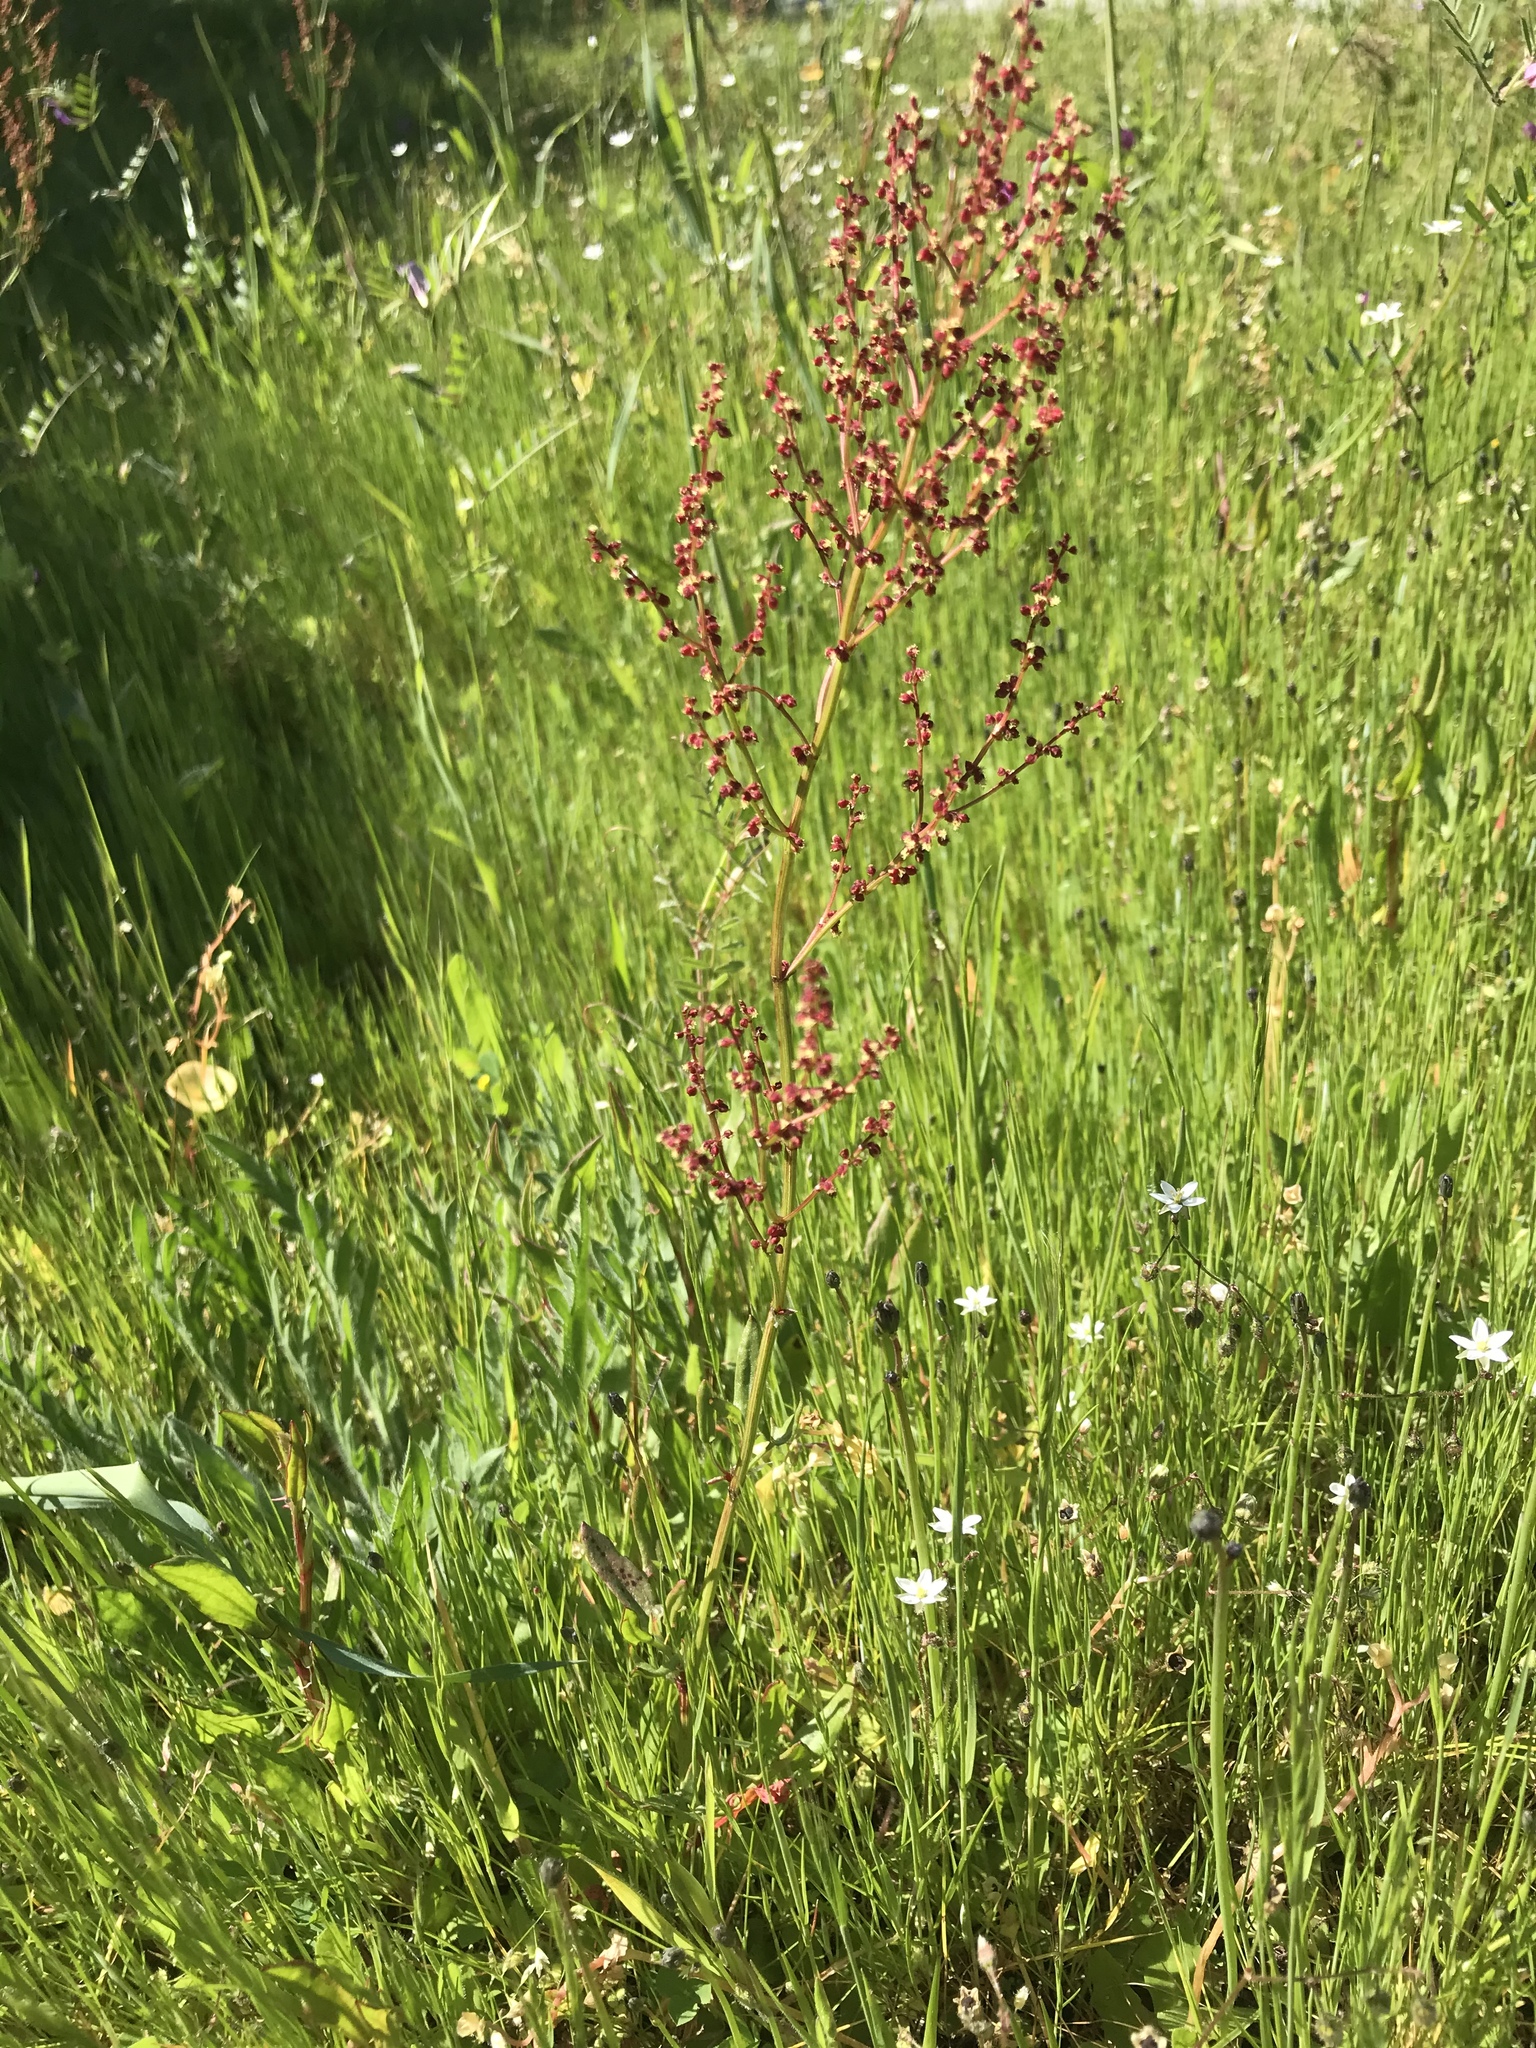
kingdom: Plantae
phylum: Tracheophyta
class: Magnoliopsida
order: Caryophyllales
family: Polygonaceae
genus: Rumex
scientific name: Rumex acetosella
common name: Common sheep sorrel
